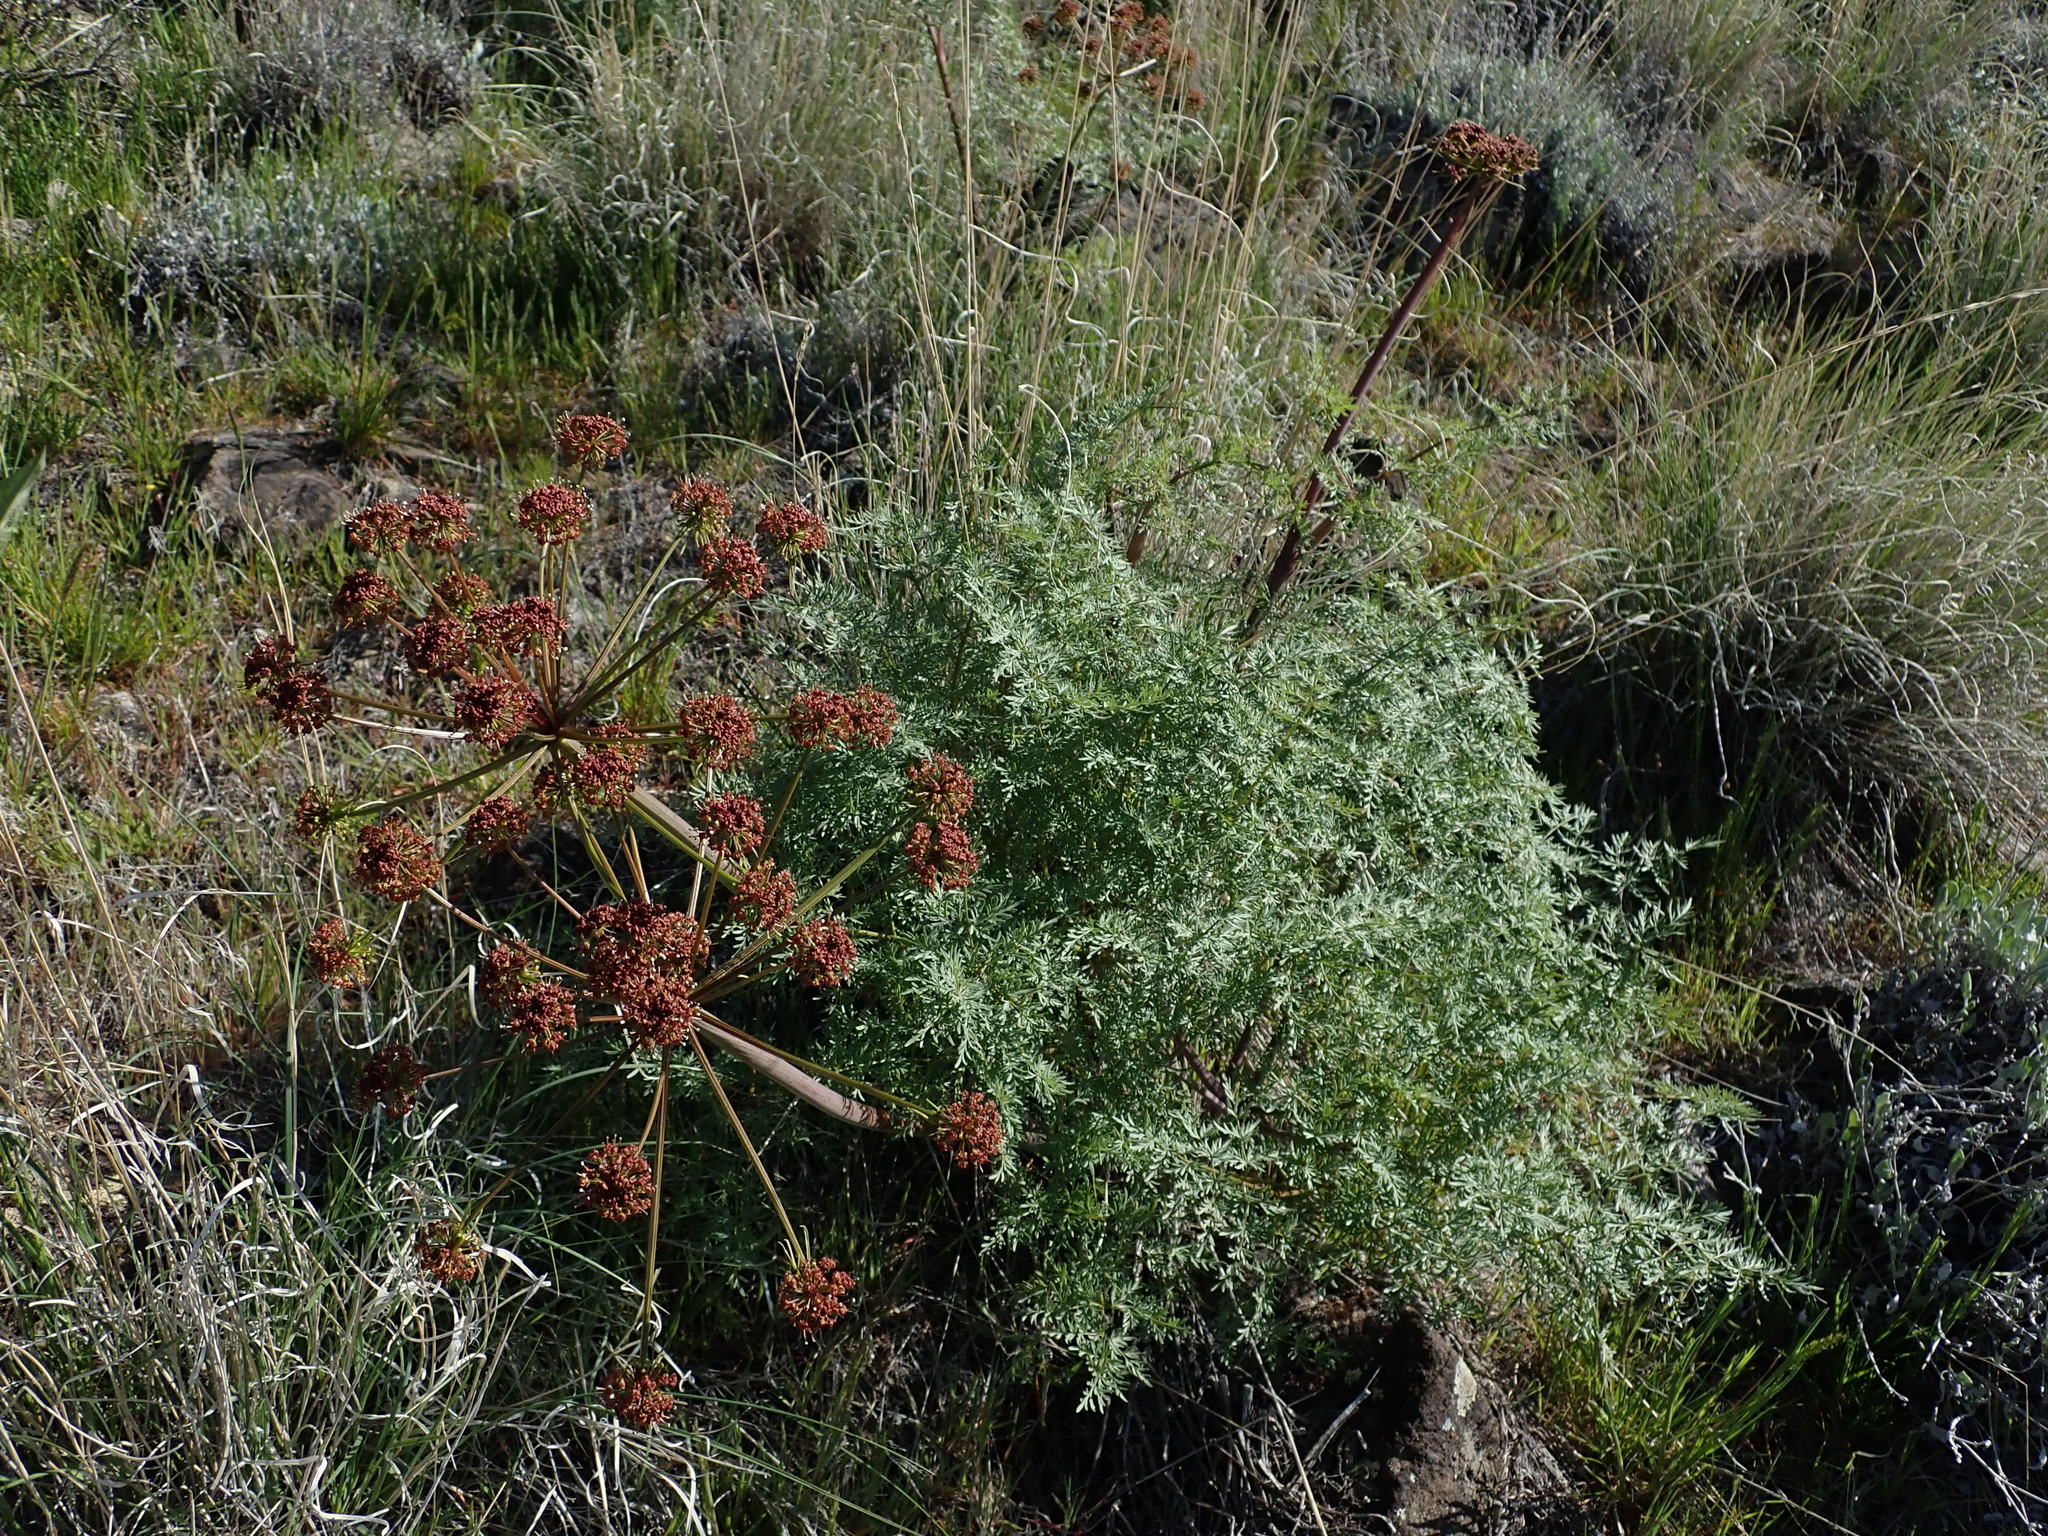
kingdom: Plantae
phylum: Tracheophyta
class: Magnoliopsida
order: Apiales
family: Apiaceae
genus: Lomatium
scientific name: Lomatium dissectum
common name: Lomatium
